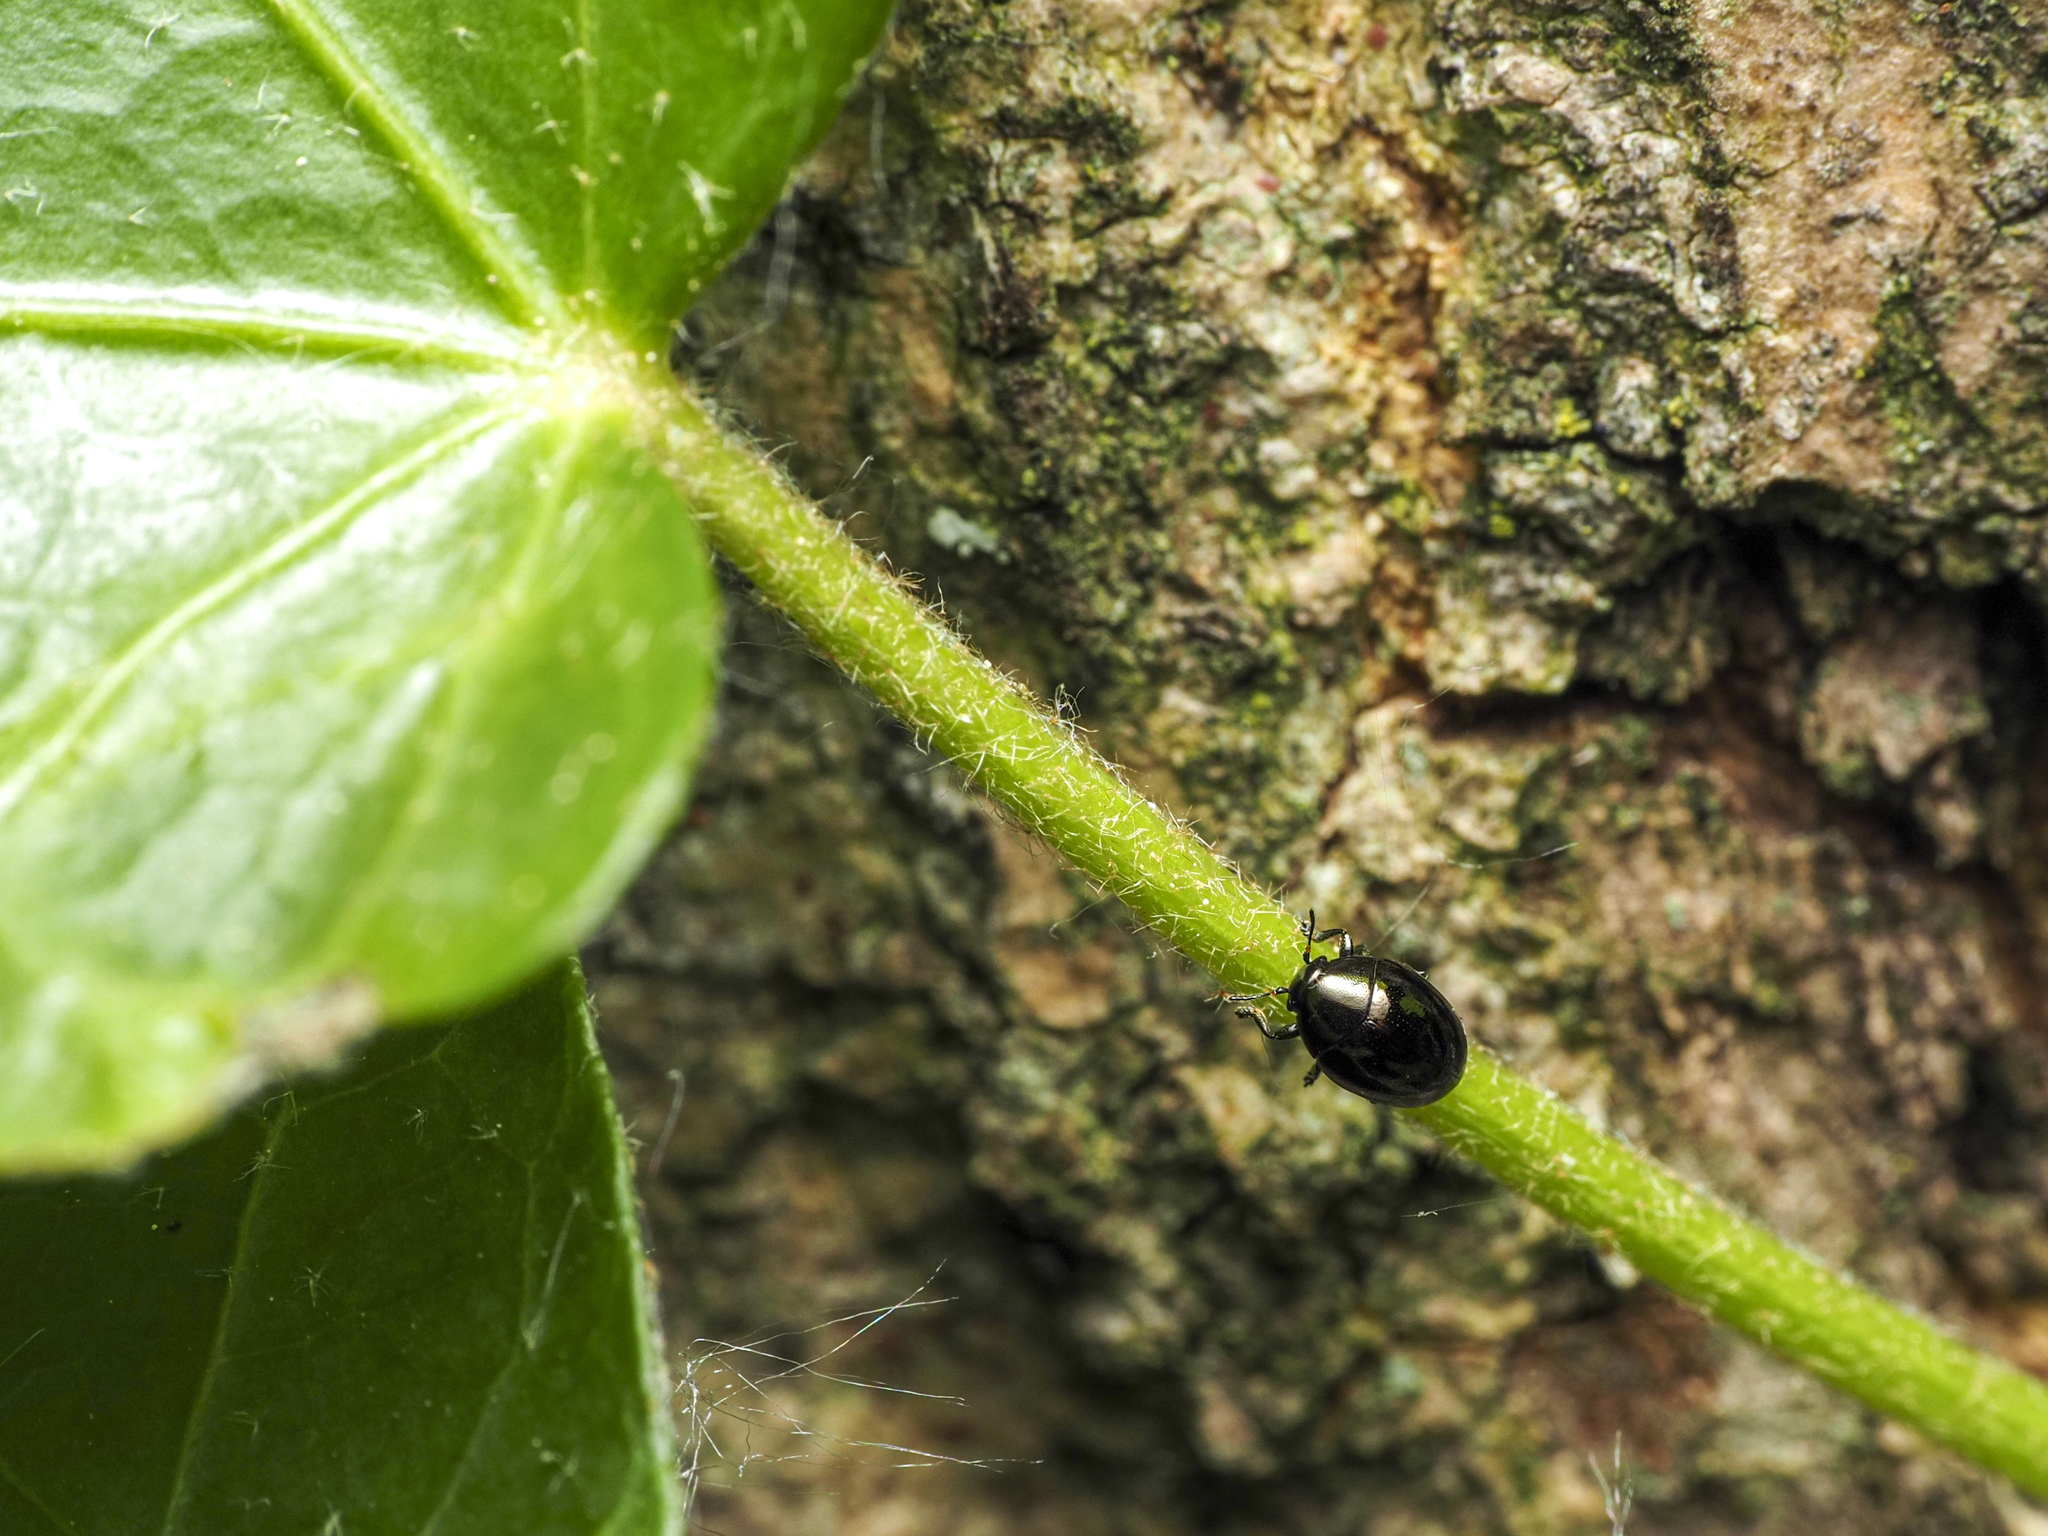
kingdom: Animalia
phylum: Arthropoda
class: Insecta
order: Coleoptera
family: Chrysomelidae
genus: Oomorphus
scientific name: Oomorphus concolor
